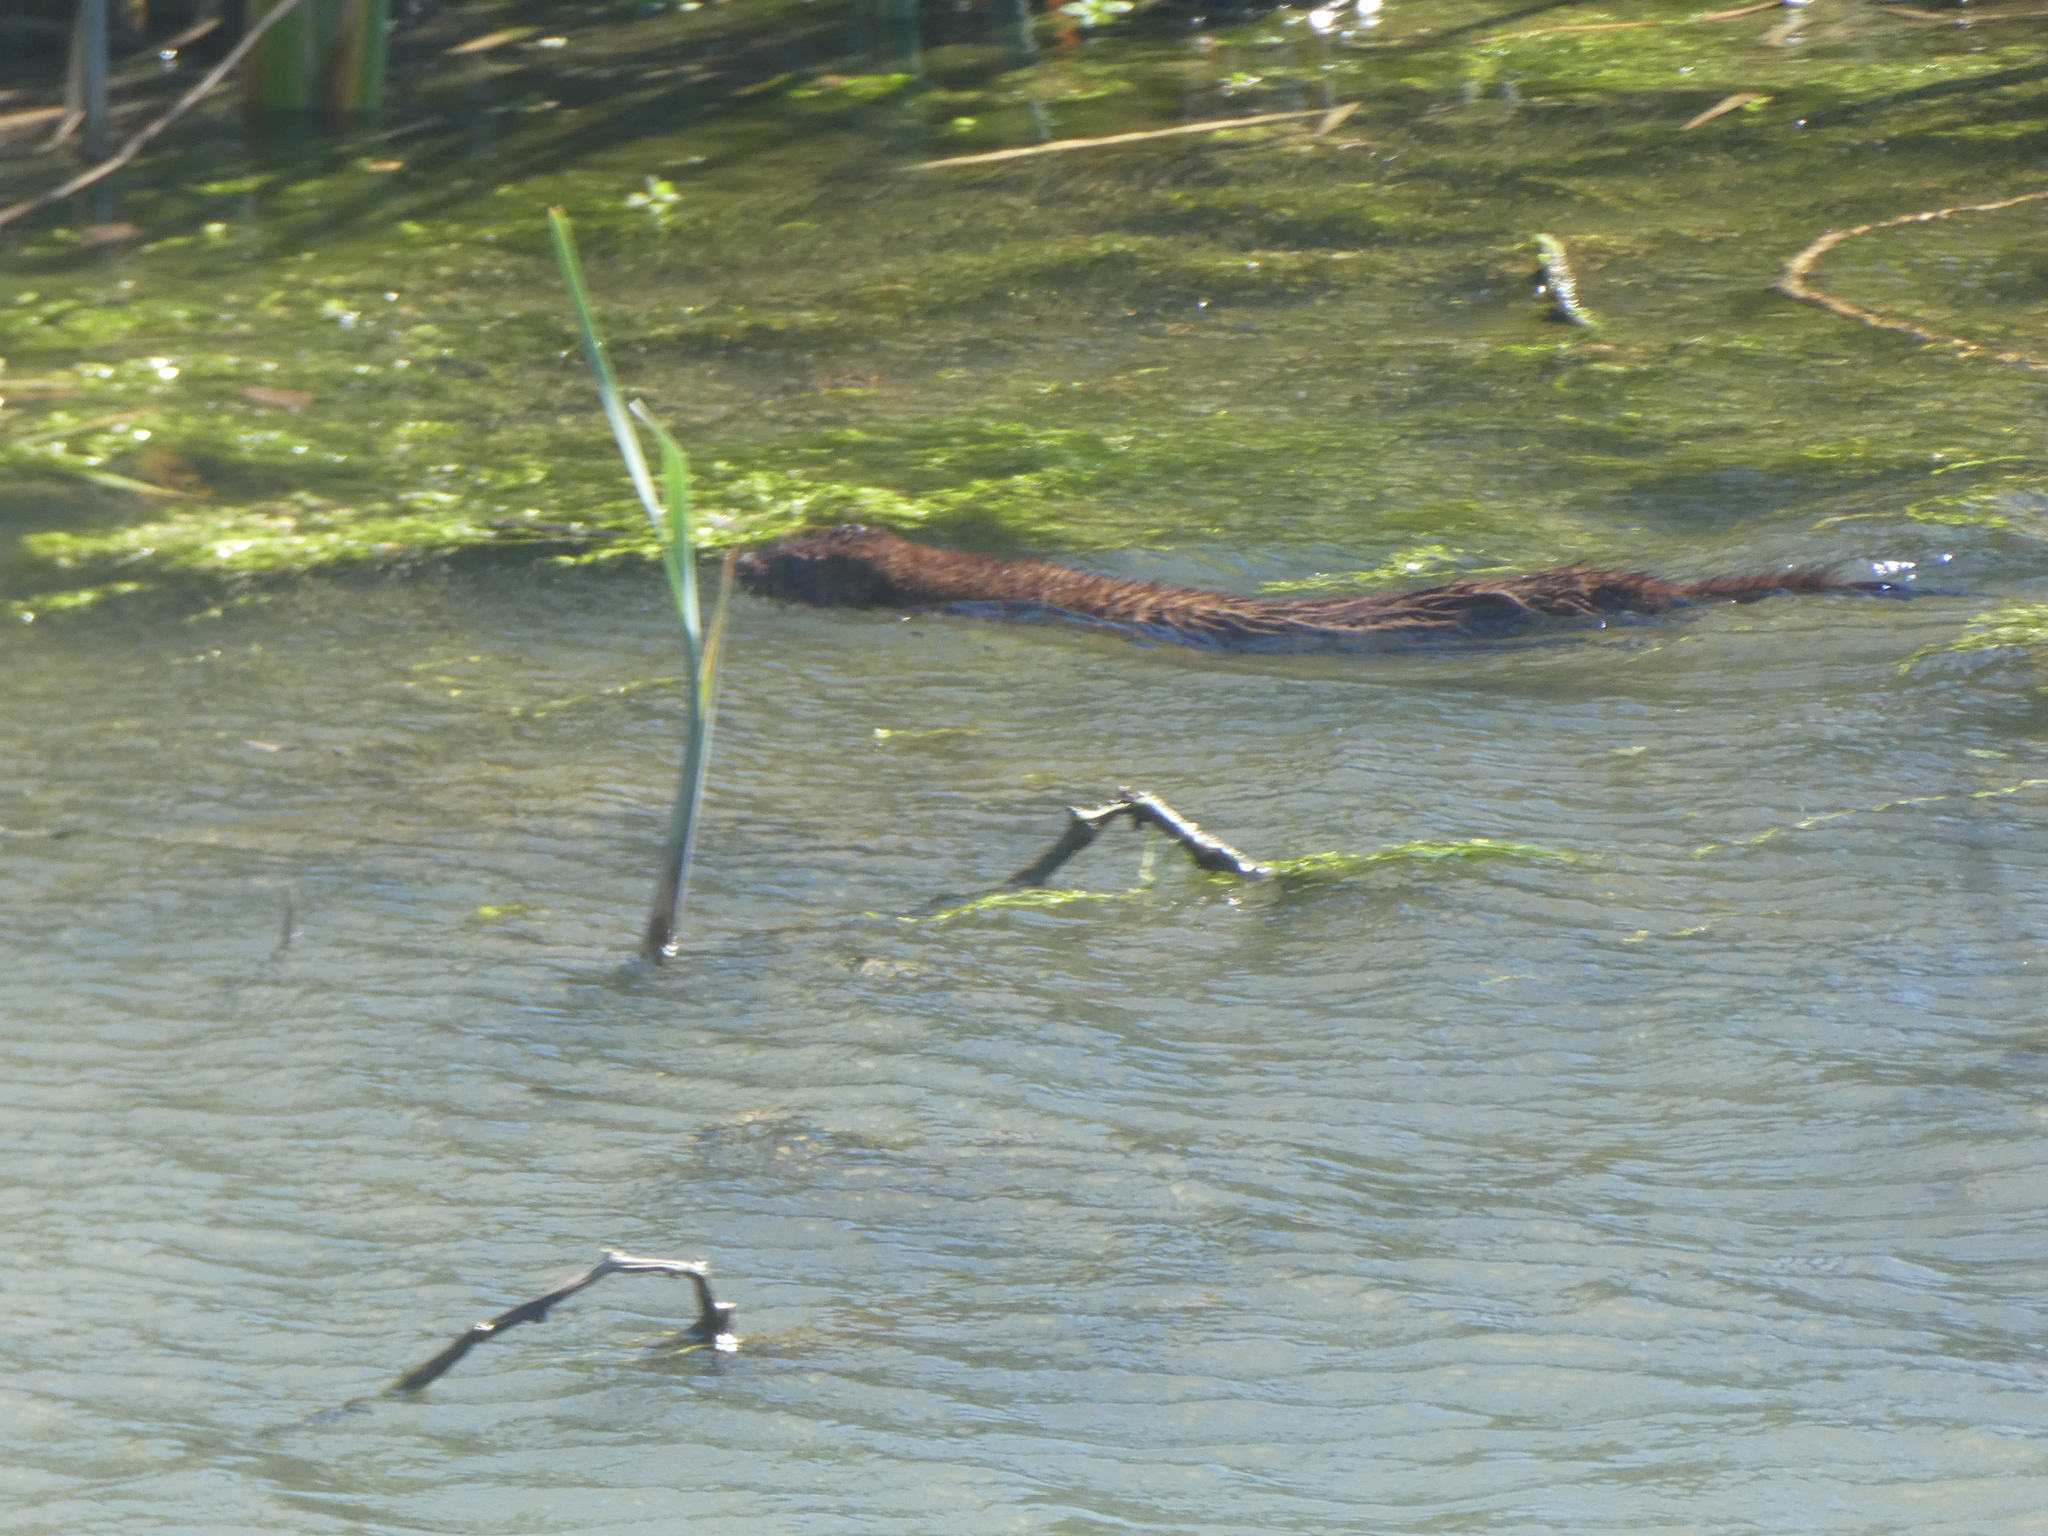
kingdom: Animalia
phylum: Chordata
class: Mammalia
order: Carnivora
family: Mustelidae
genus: Mustela
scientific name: Mustela
